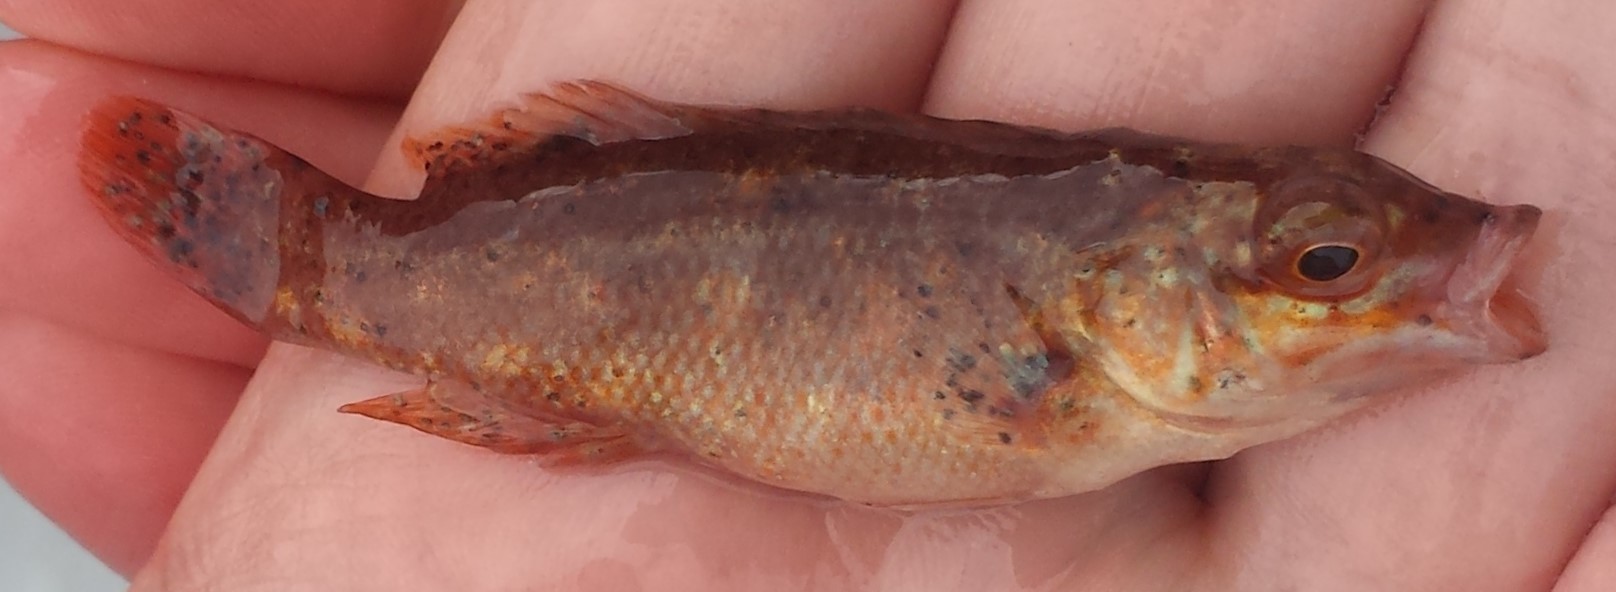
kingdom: Animalia
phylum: Chordata
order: Perciformes
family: Labridae
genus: Tautogolabrus
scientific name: Tautogolabrus adspersus
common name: Cunner
